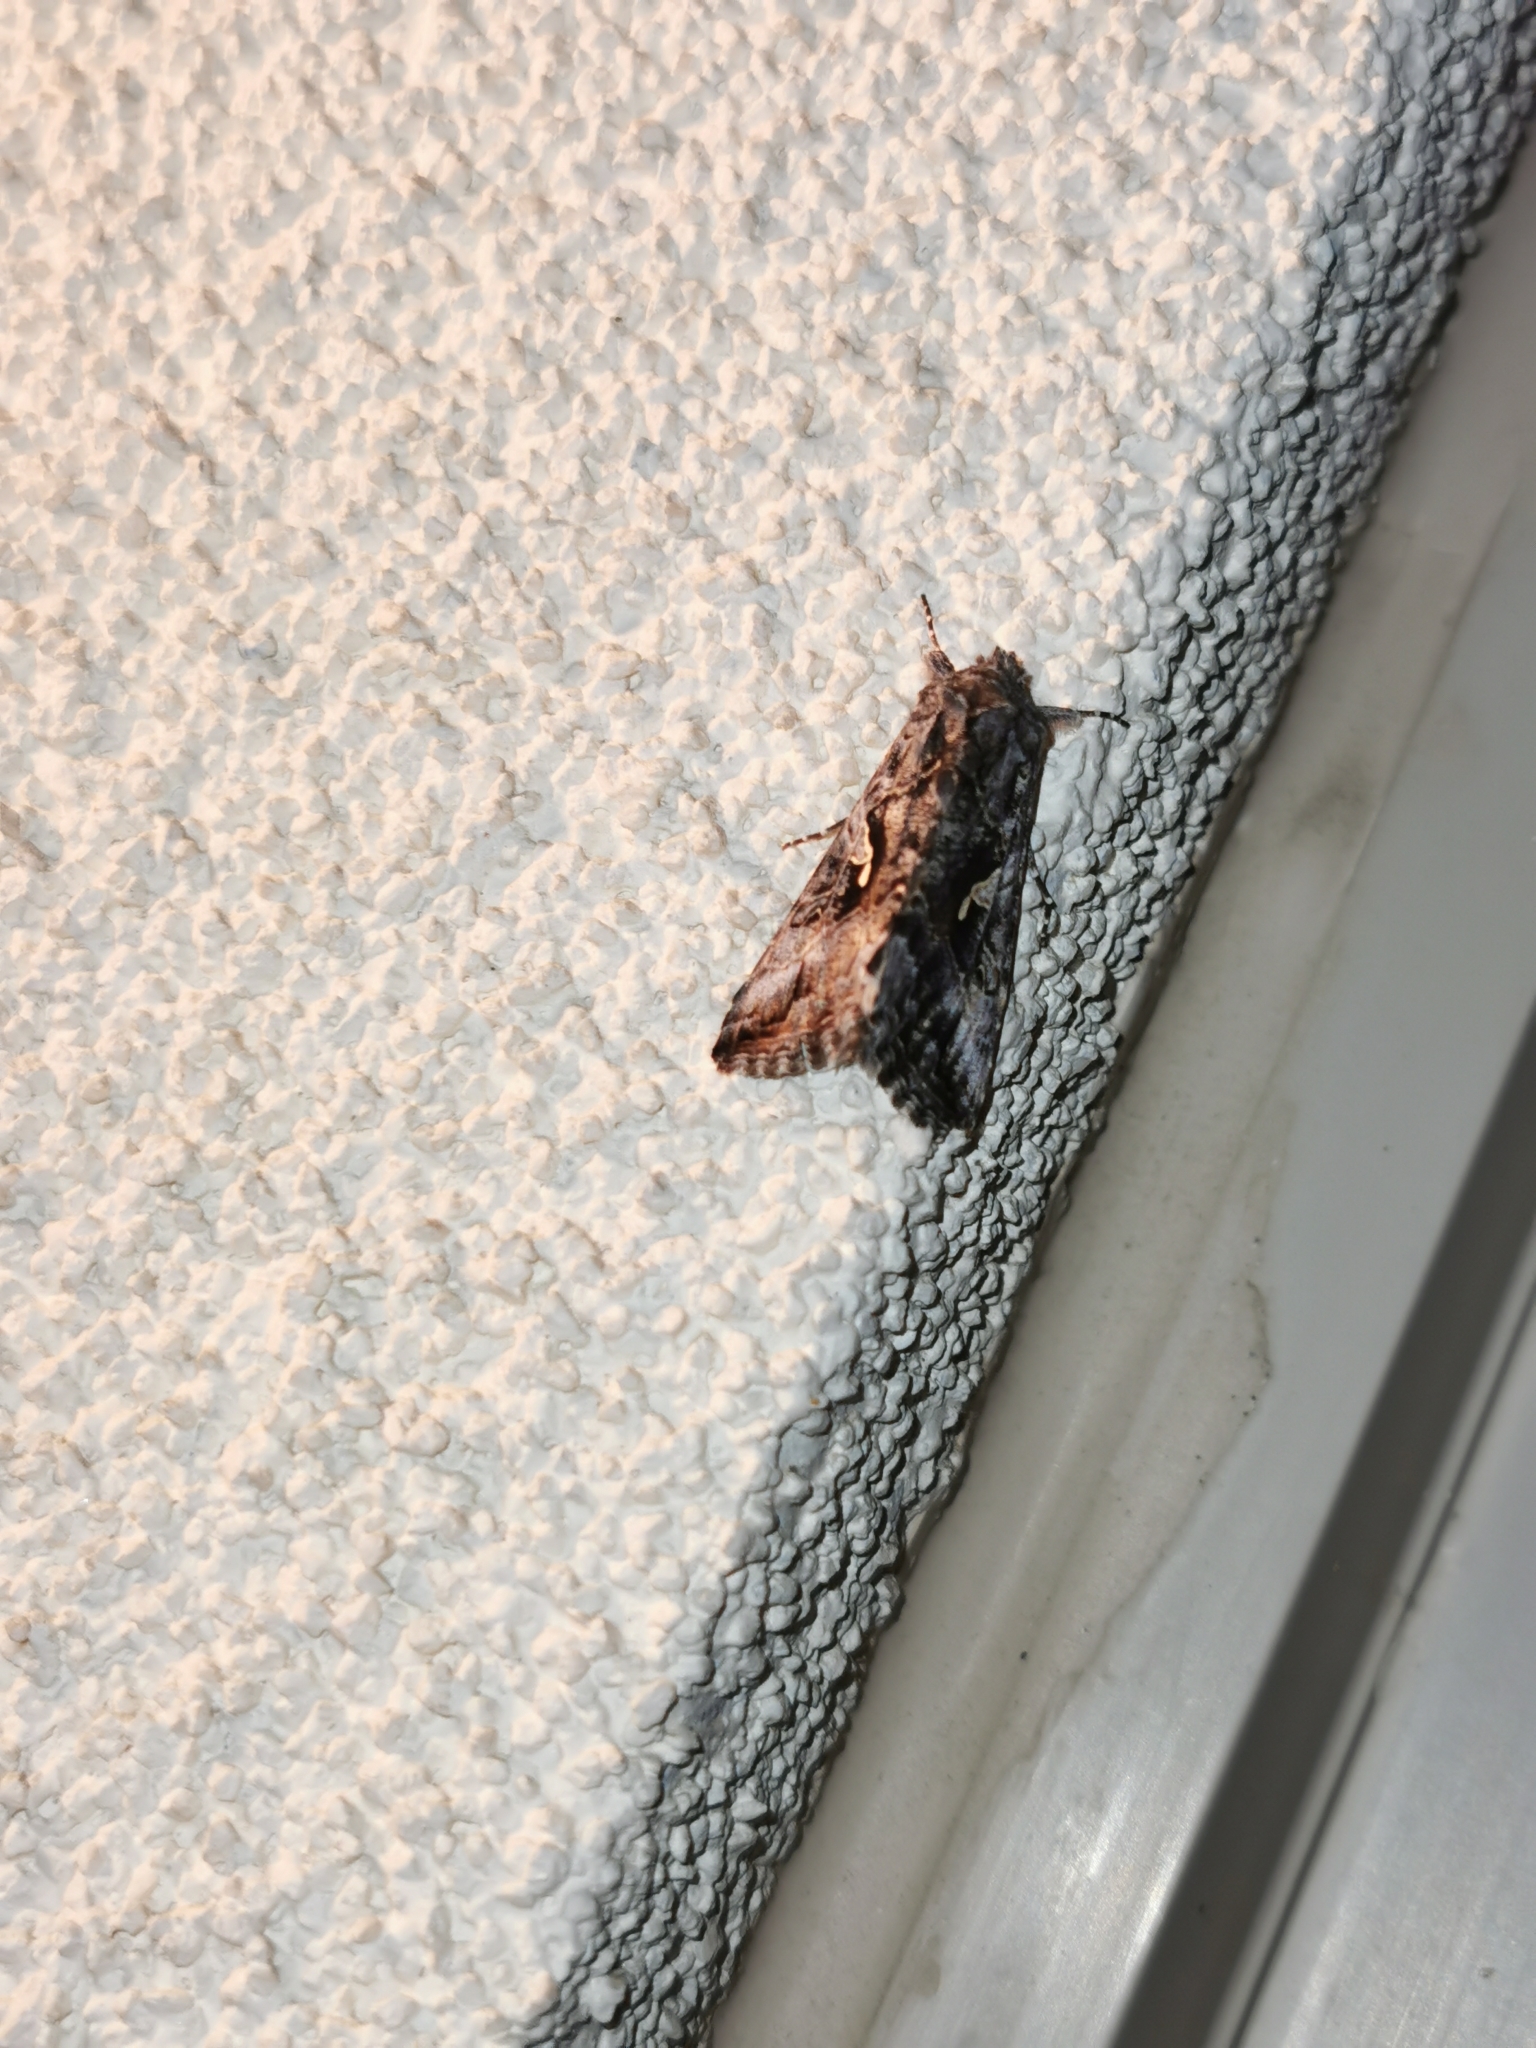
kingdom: Animalia
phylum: Arthropoda
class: Insecta
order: Lepidoptera
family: Noctuidae
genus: Autographa
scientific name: Autographa californica
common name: Alfalfa looper
